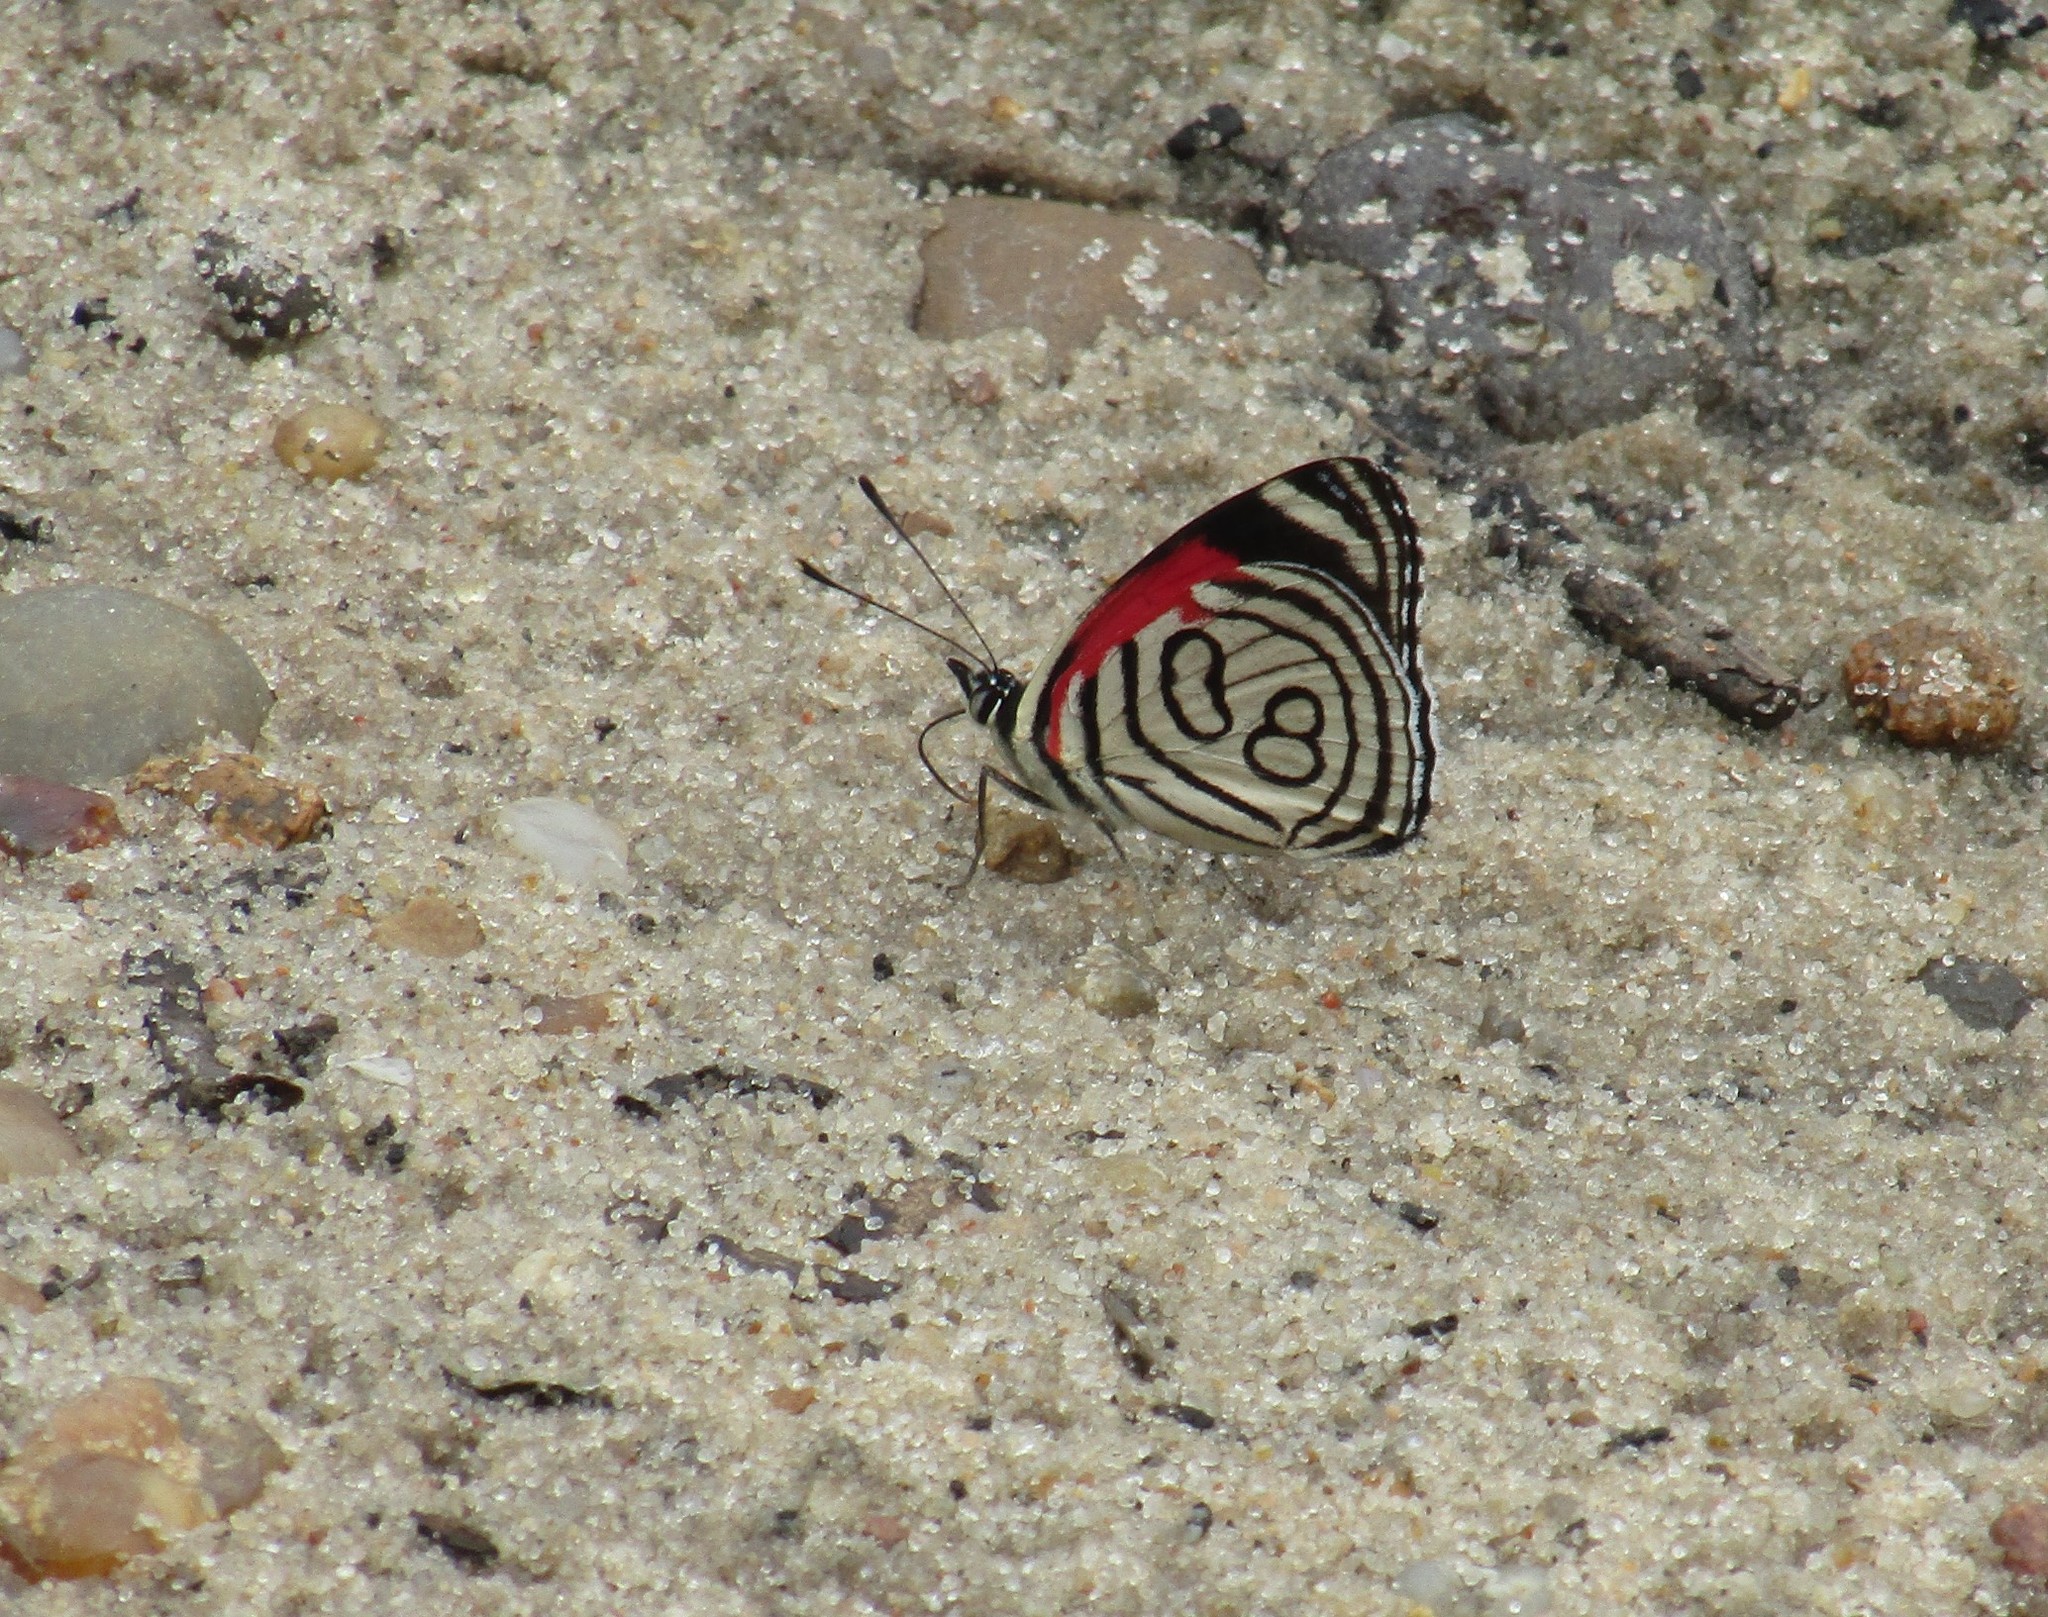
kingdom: Animalia
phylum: Arthropoda
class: Insecta
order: Lepidoptera
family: Nymphalidae
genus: Diaethria
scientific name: Diaethria candrena
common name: Number eighty
